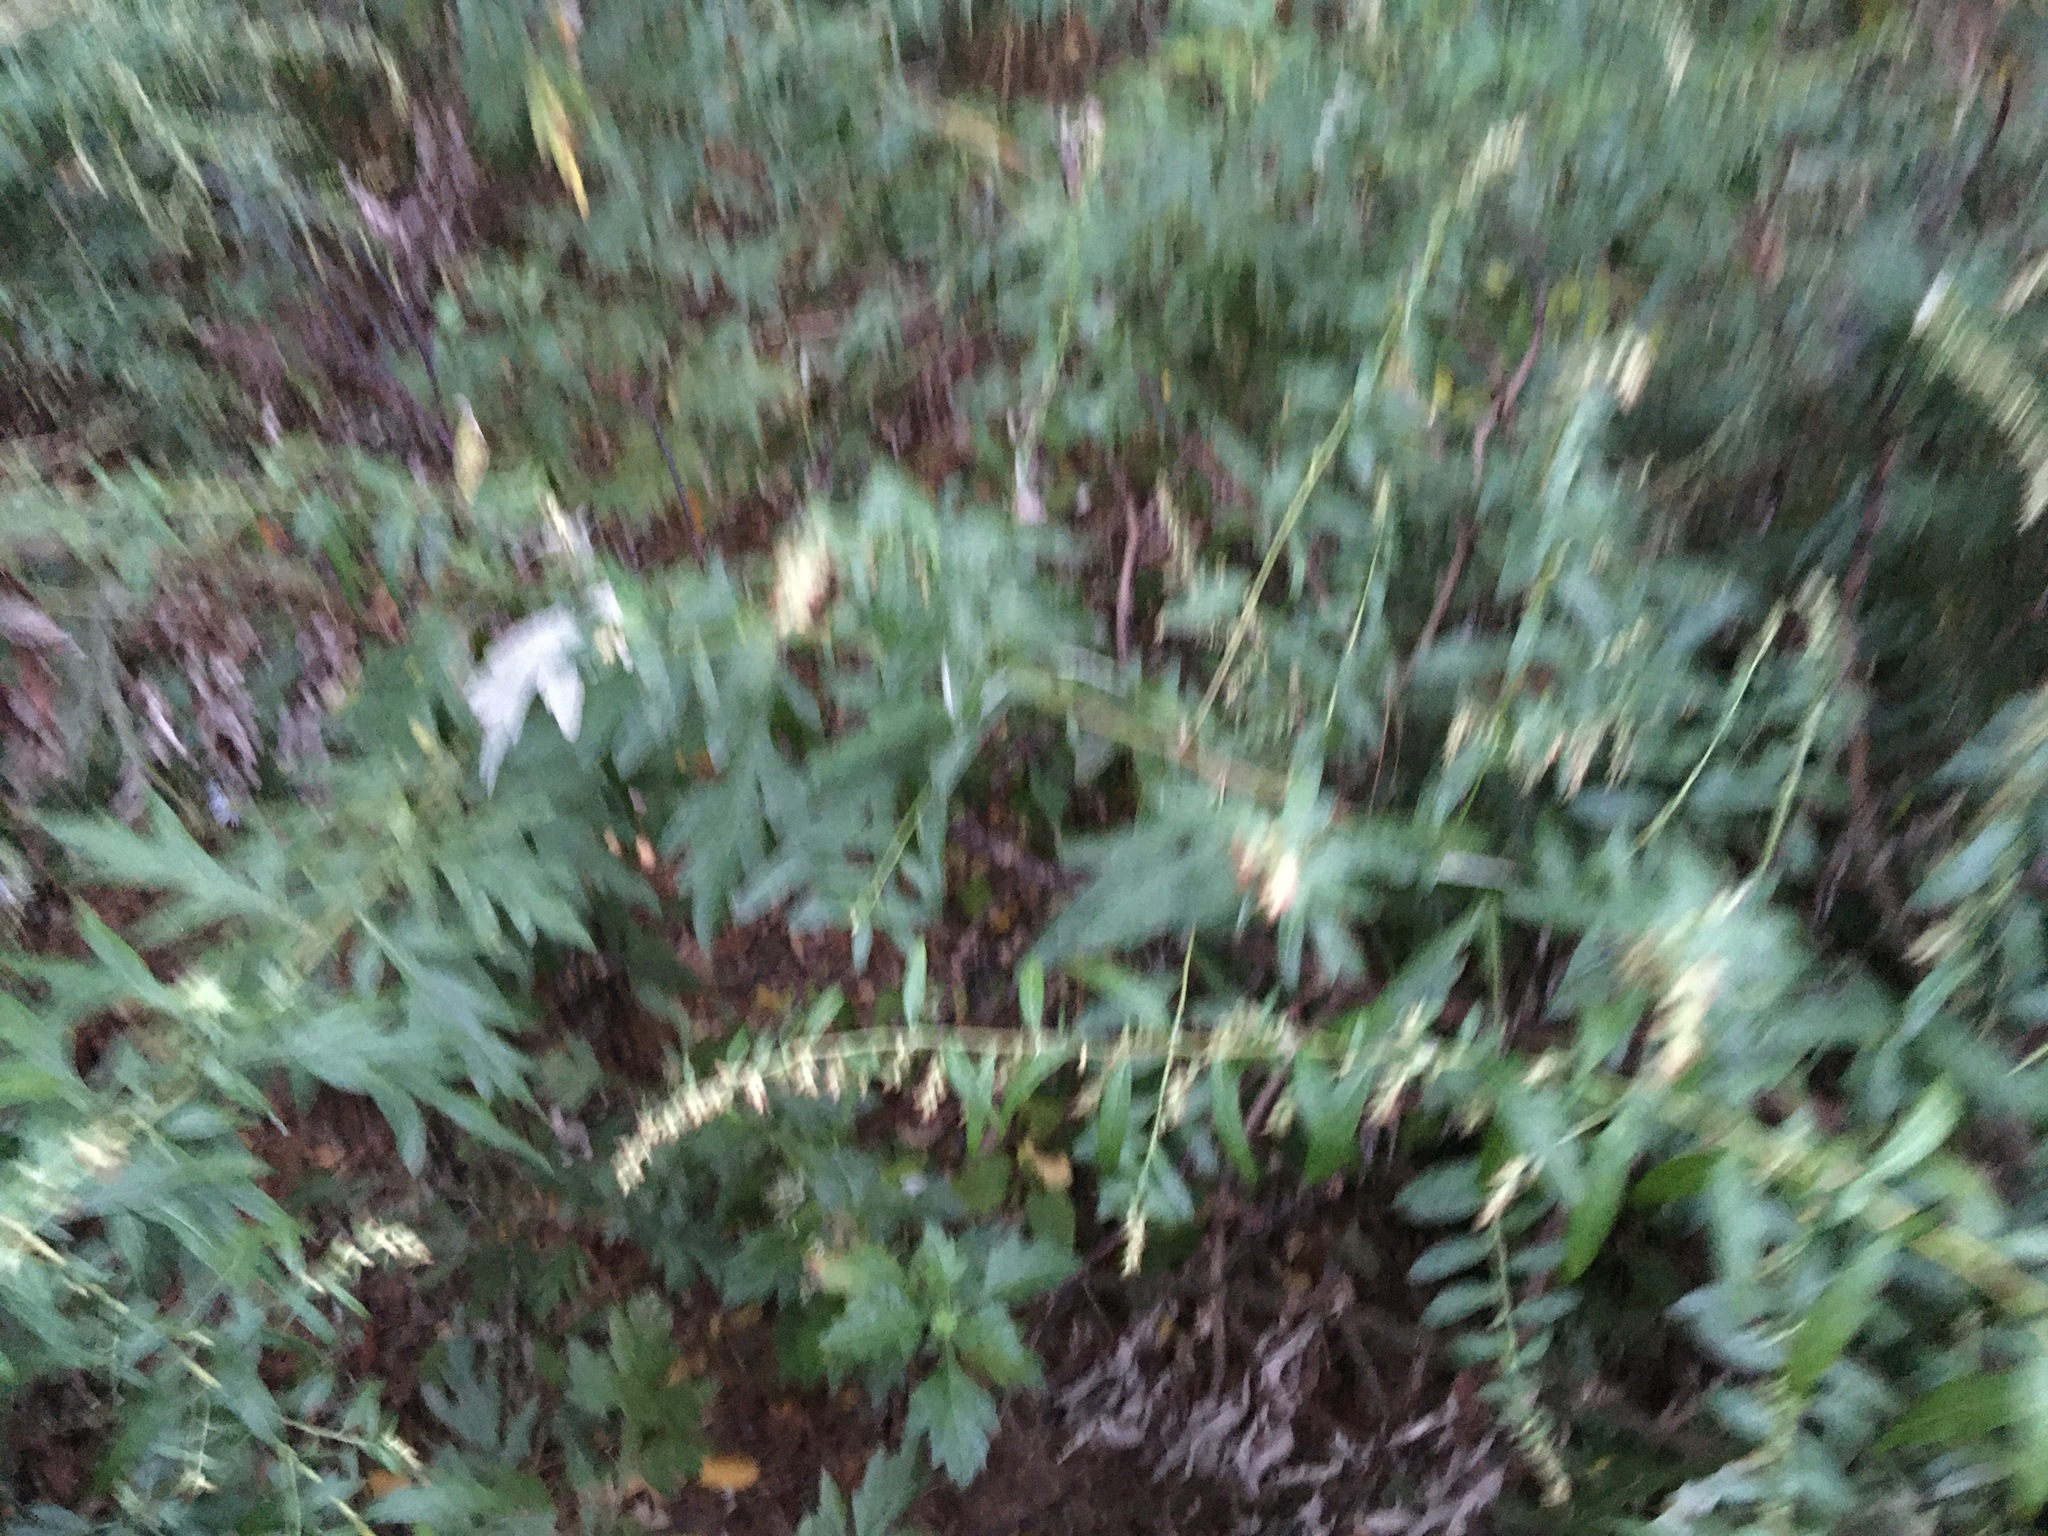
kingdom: Plantae
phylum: Tracheophyta
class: Magnoliopsida
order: Asterales
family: Asteraceae
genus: Artemisia
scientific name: Artemisia vulgaris
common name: Mugwort
